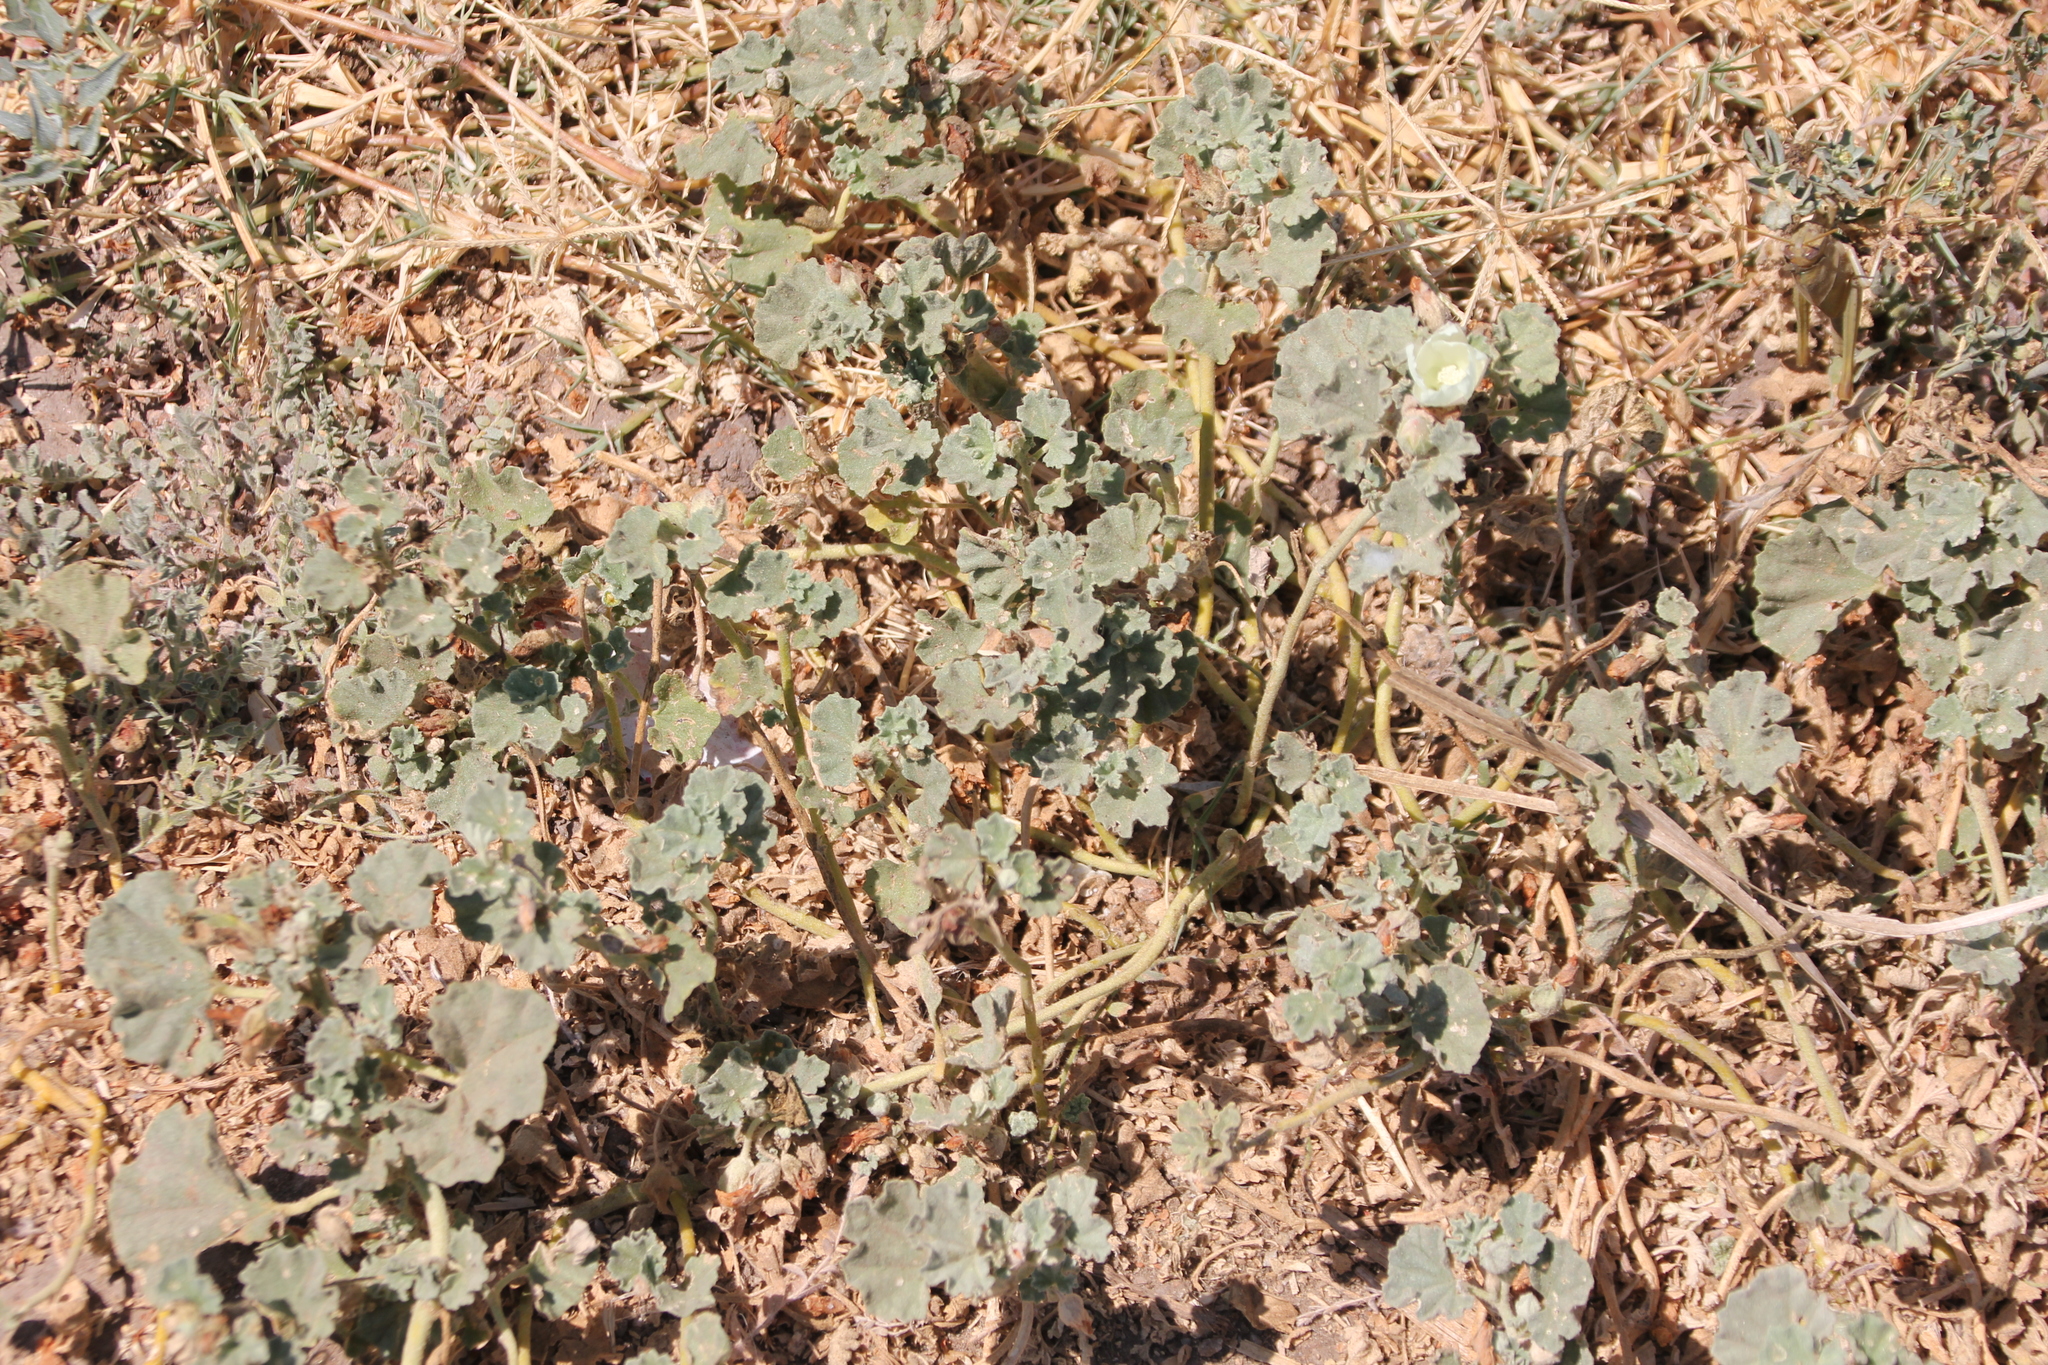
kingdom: Plantae
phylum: Tracheophyta
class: Magnoliopsida
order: Malvales
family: Malvaceae
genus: Malvella
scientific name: Malvella leprosa
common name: Alkali-mallow
